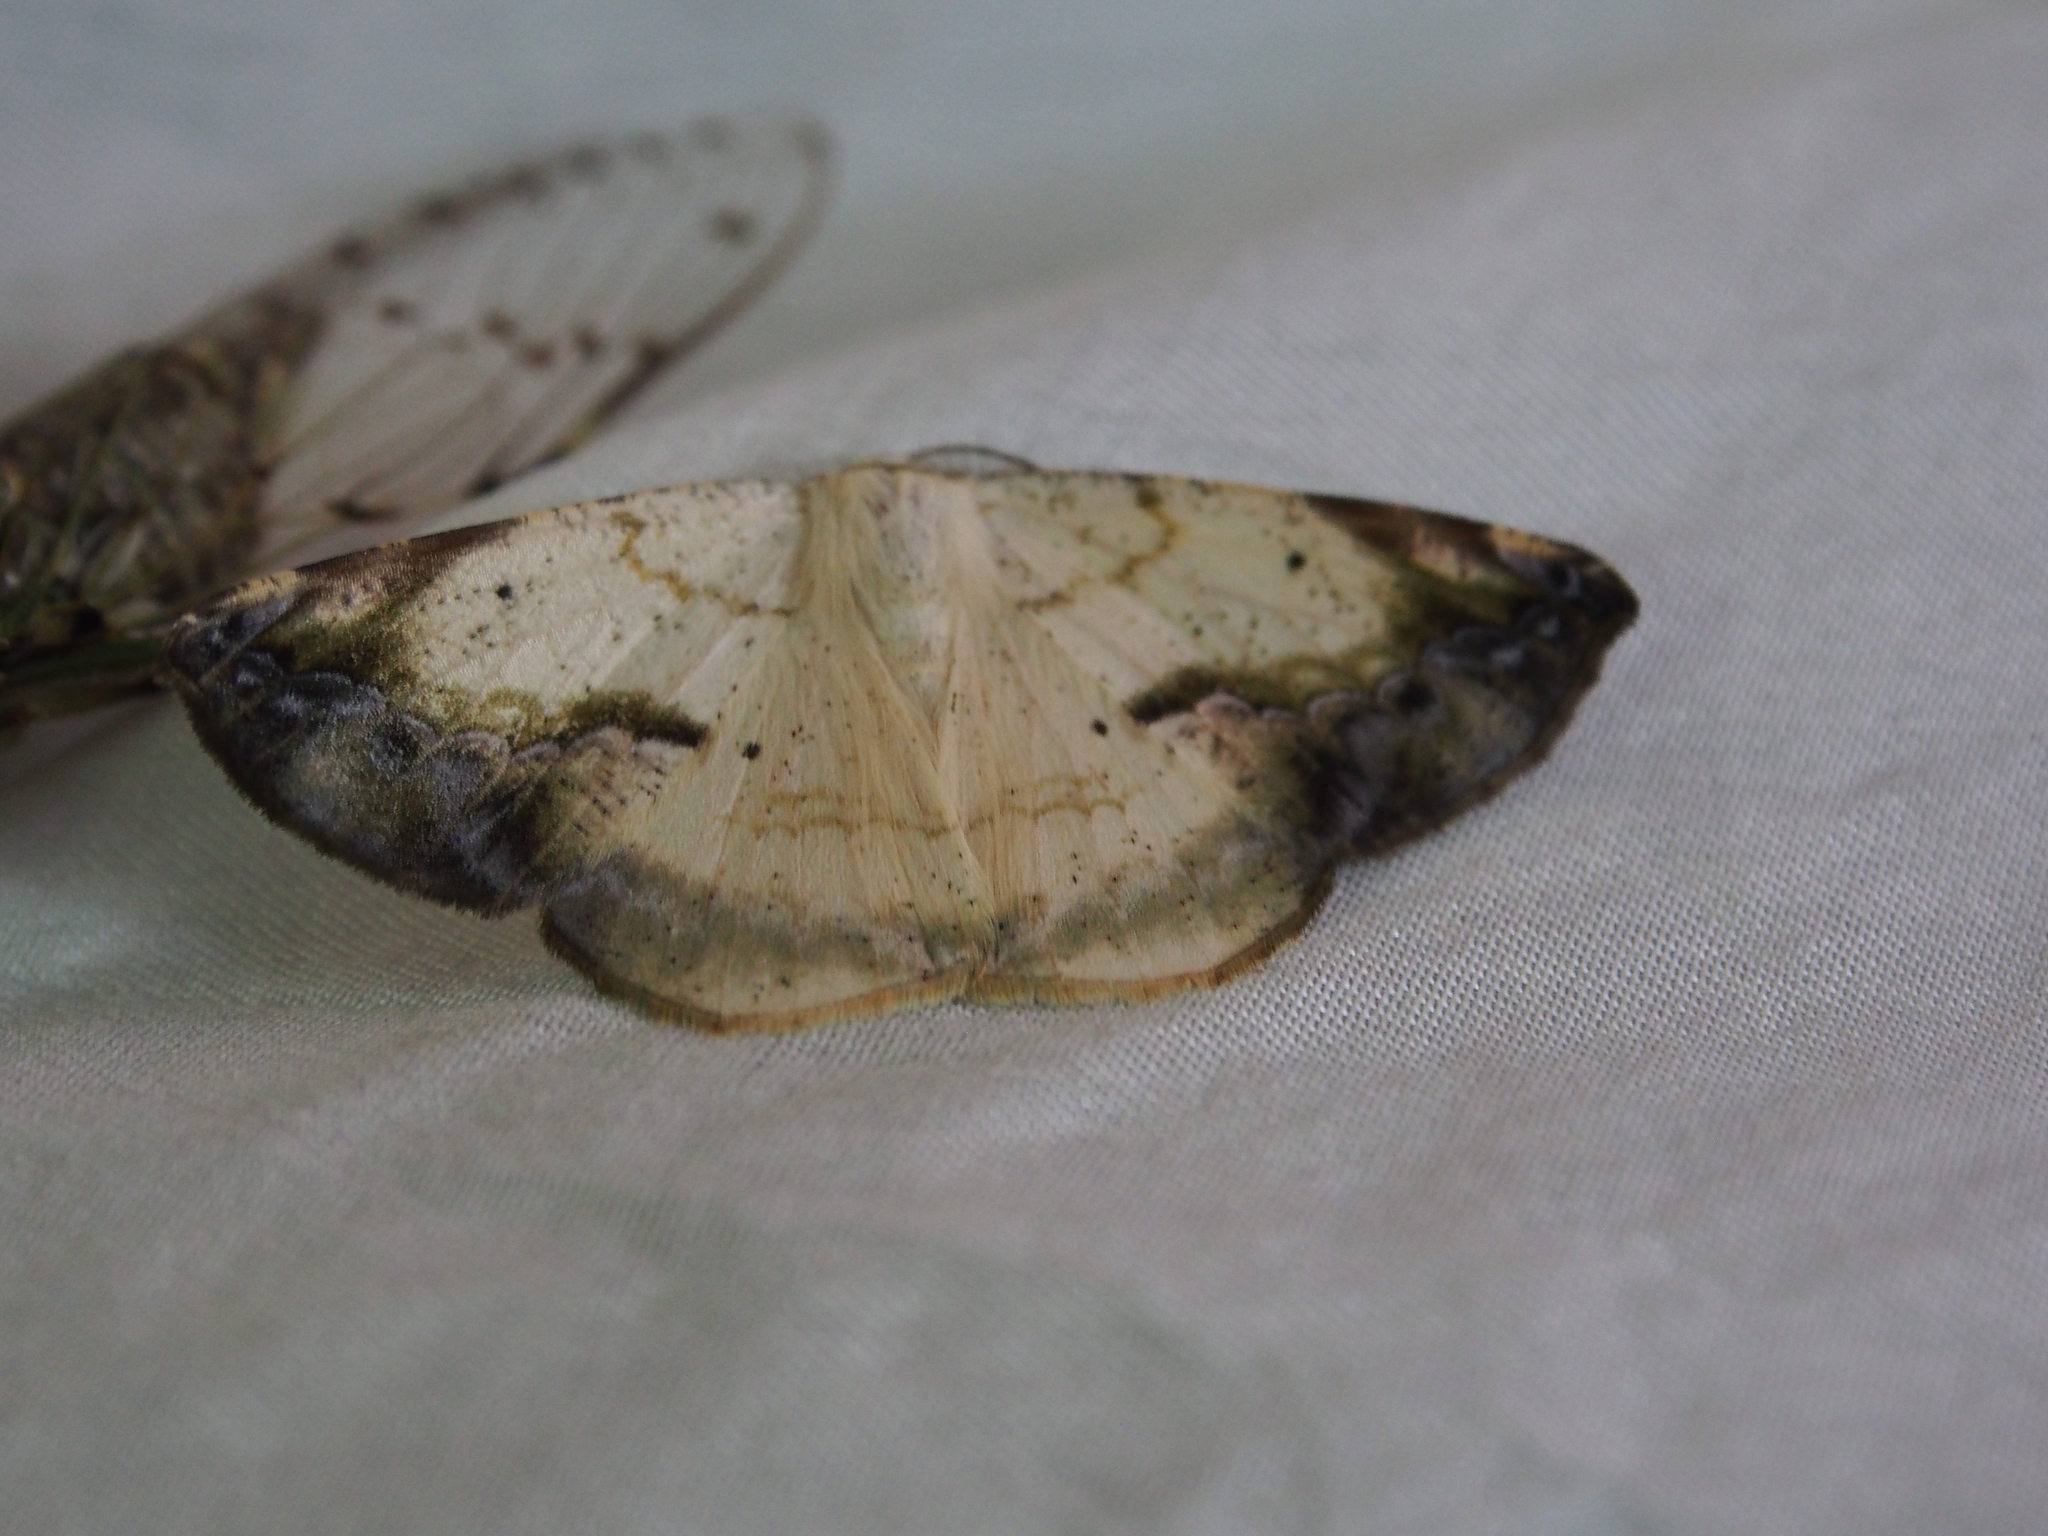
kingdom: Animalia
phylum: Arthropoda
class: Insecta
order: Lepidoptera
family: Geometridae
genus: Eusarca
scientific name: Eusarca nemora
